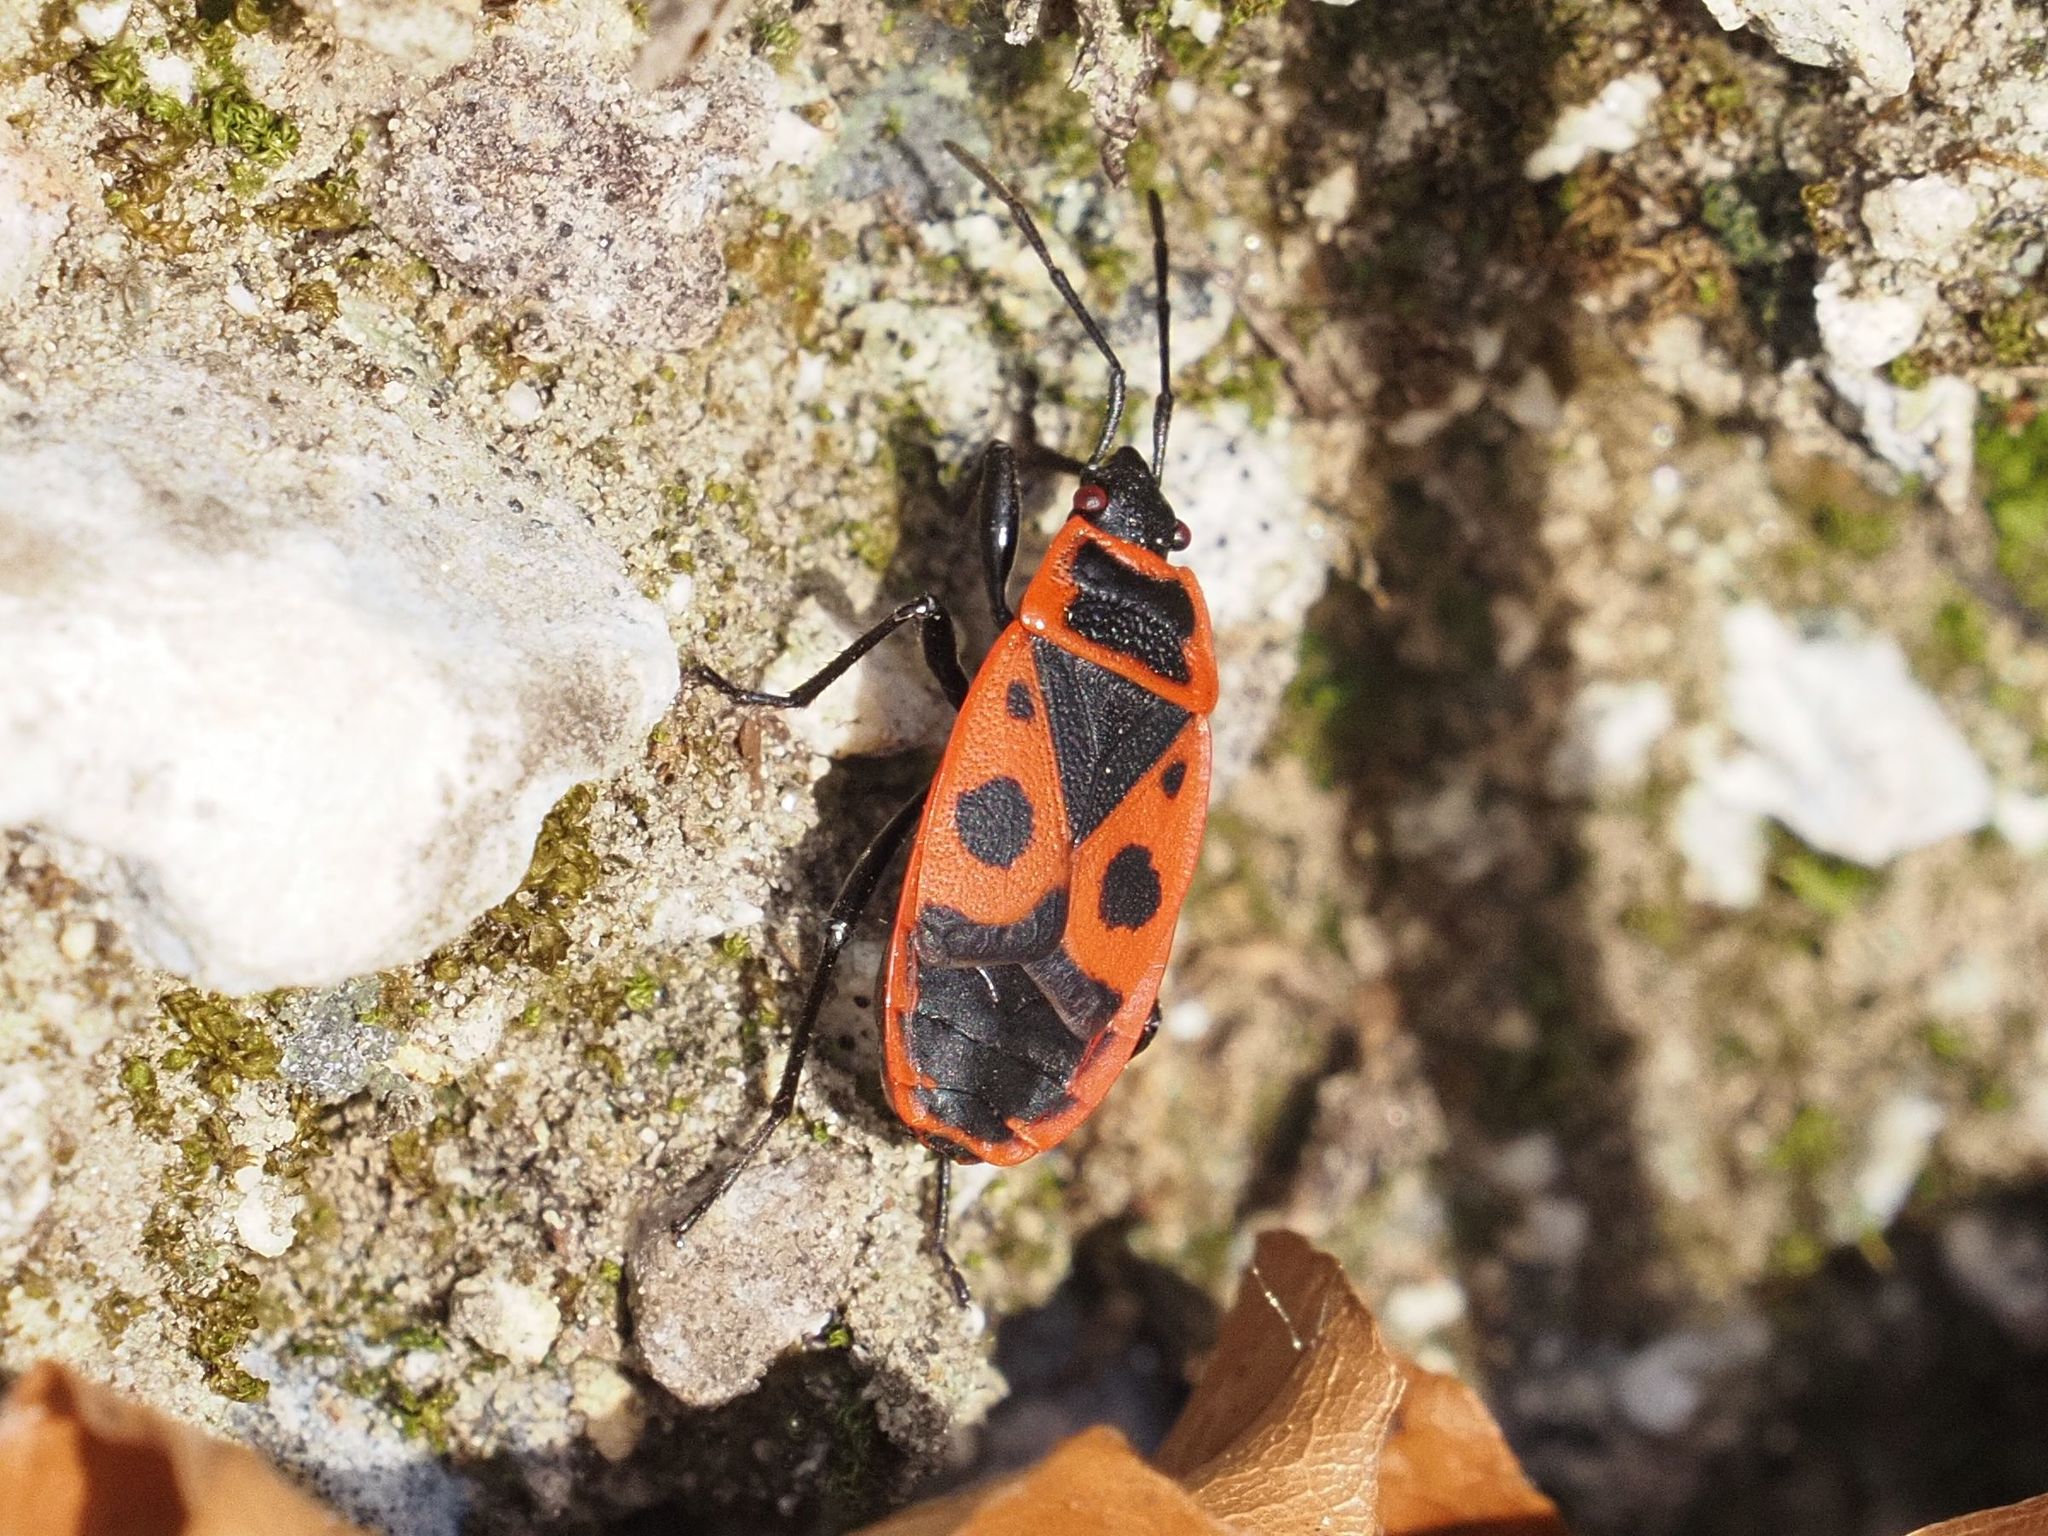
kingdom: Animalia
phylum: Arthropoda
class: Insecta
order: Hemiptera
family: Pyrrhocoridae
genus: Pyrrhocoris
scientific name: Pyrrhocoris apterus
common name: Firebug
